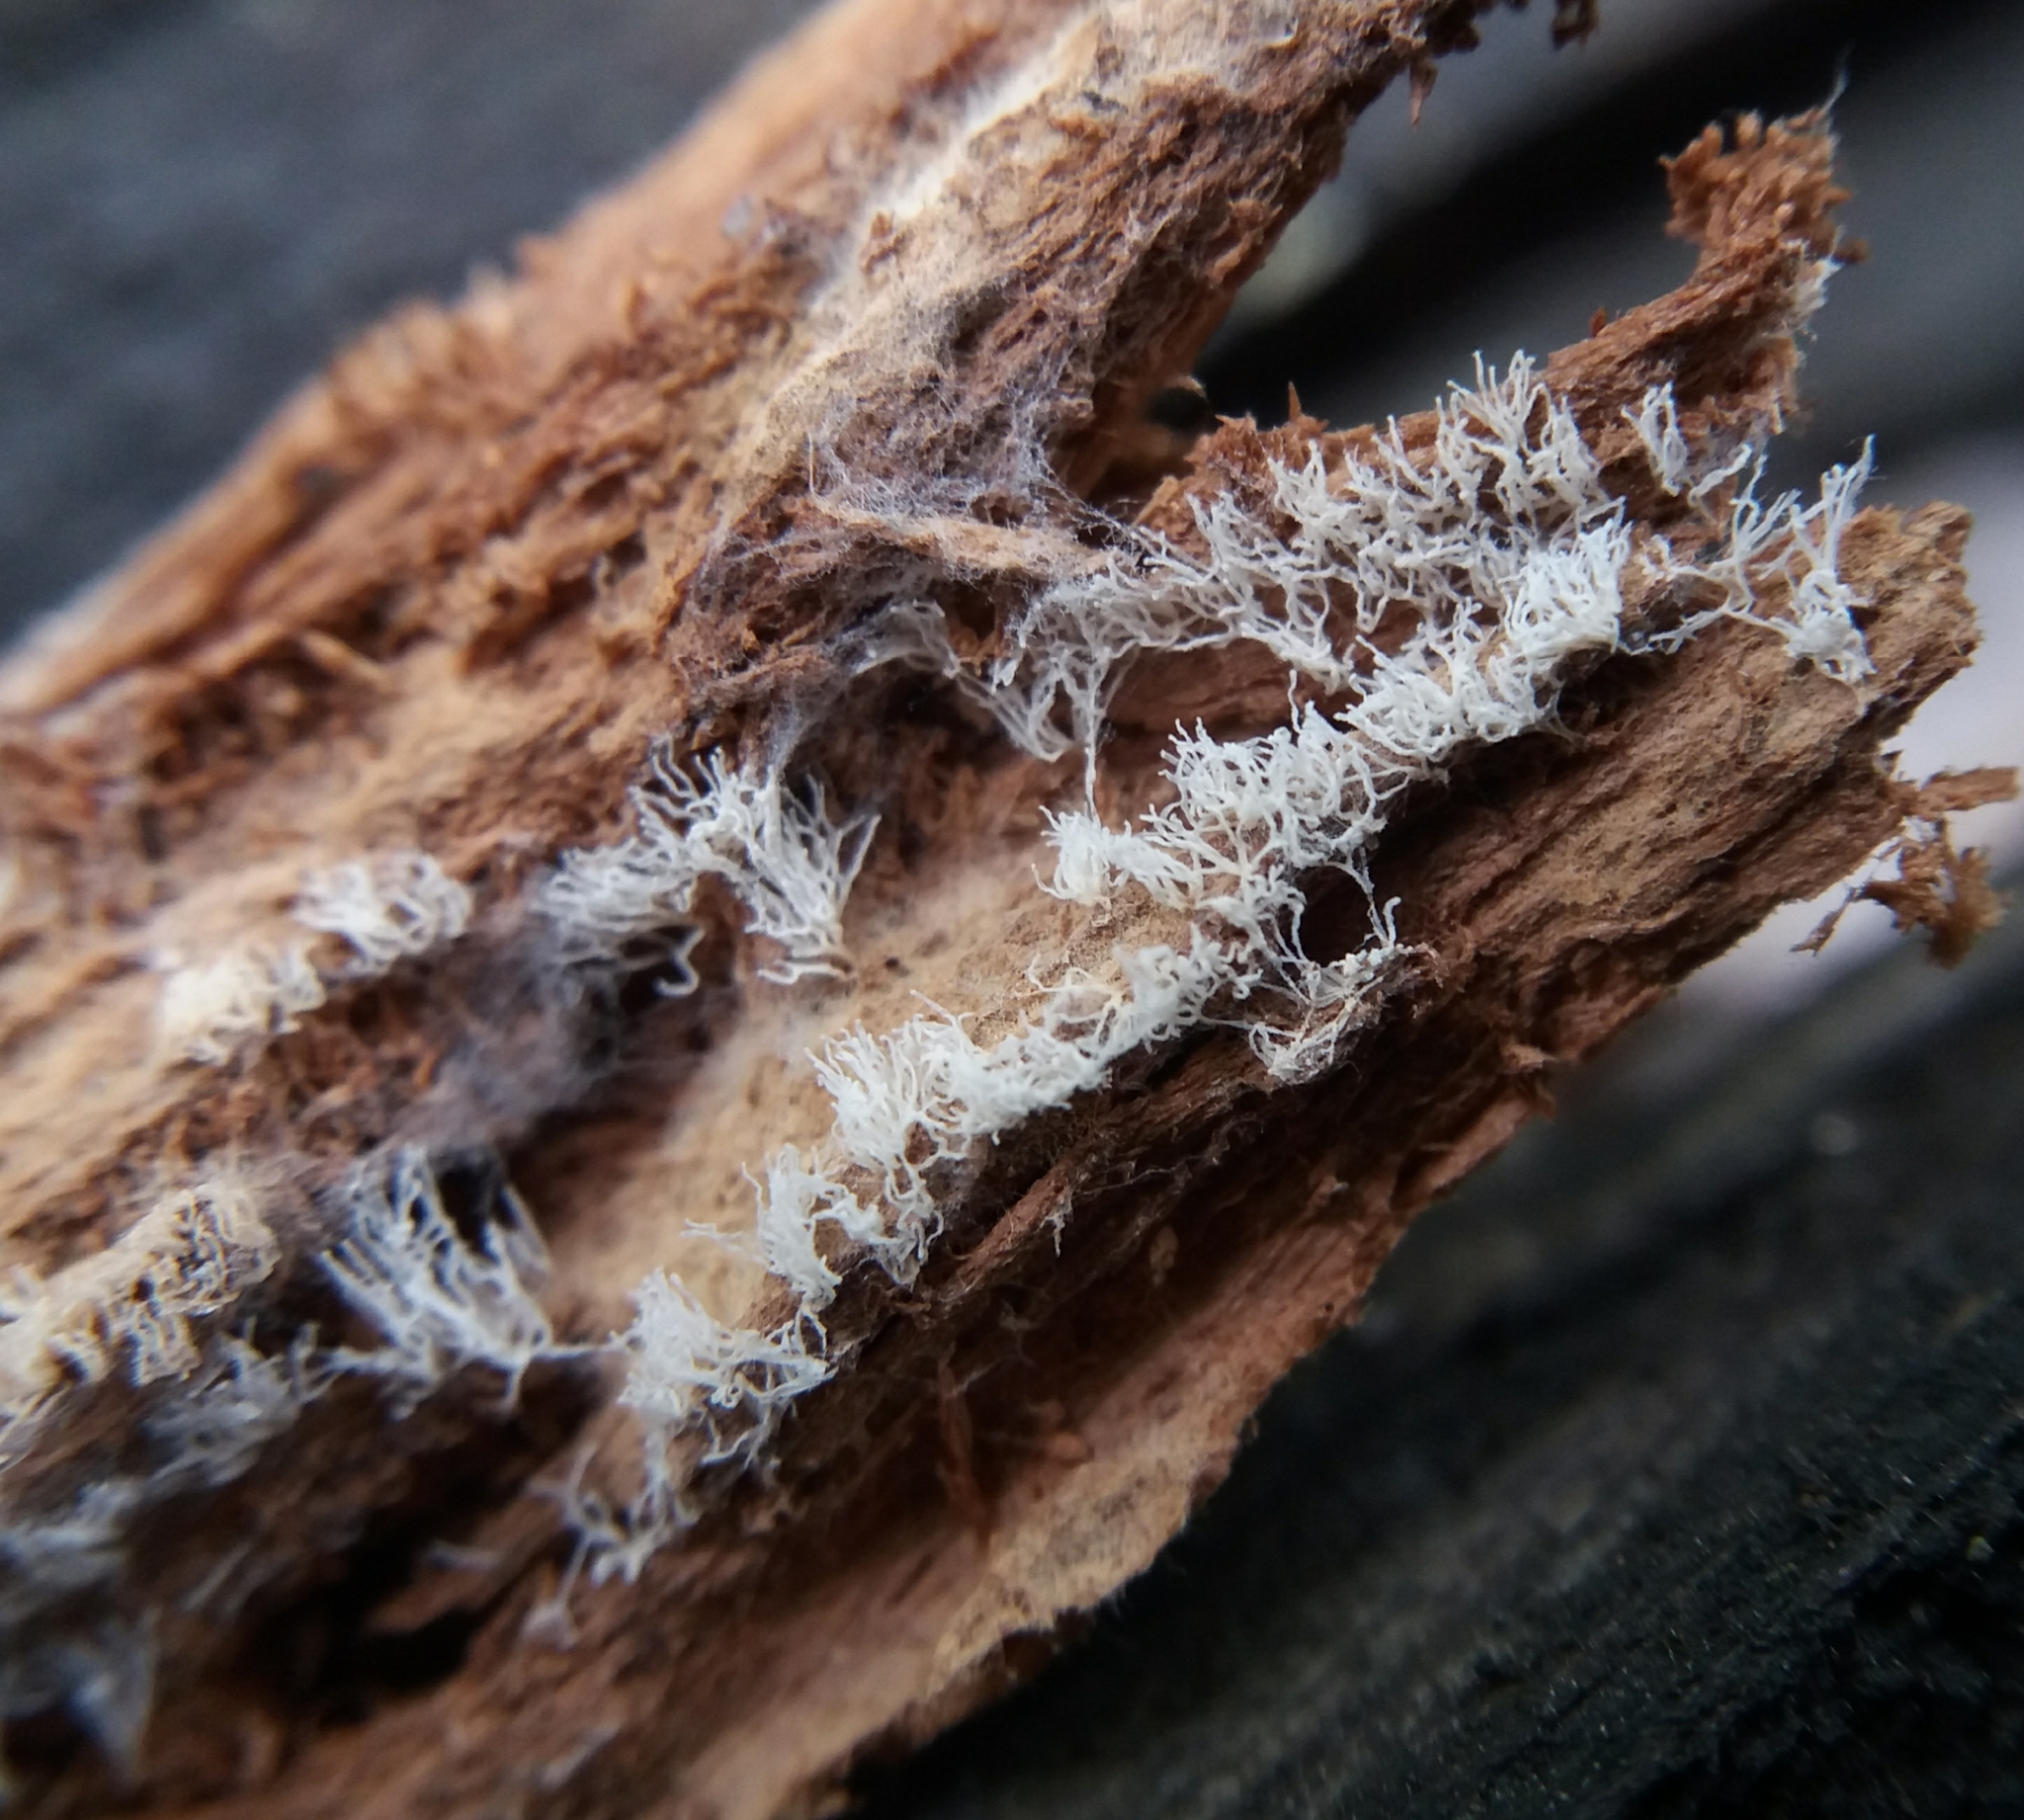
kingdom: Protozoa
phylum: Mycetozoa
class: Protosteliomycetes
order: Ceratiomyxales
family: Ceratiomyxaceae
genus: Ceratiomyxa
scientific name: Ceratiomyxa fruticulosa
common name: Honeycomb coral slime mold
